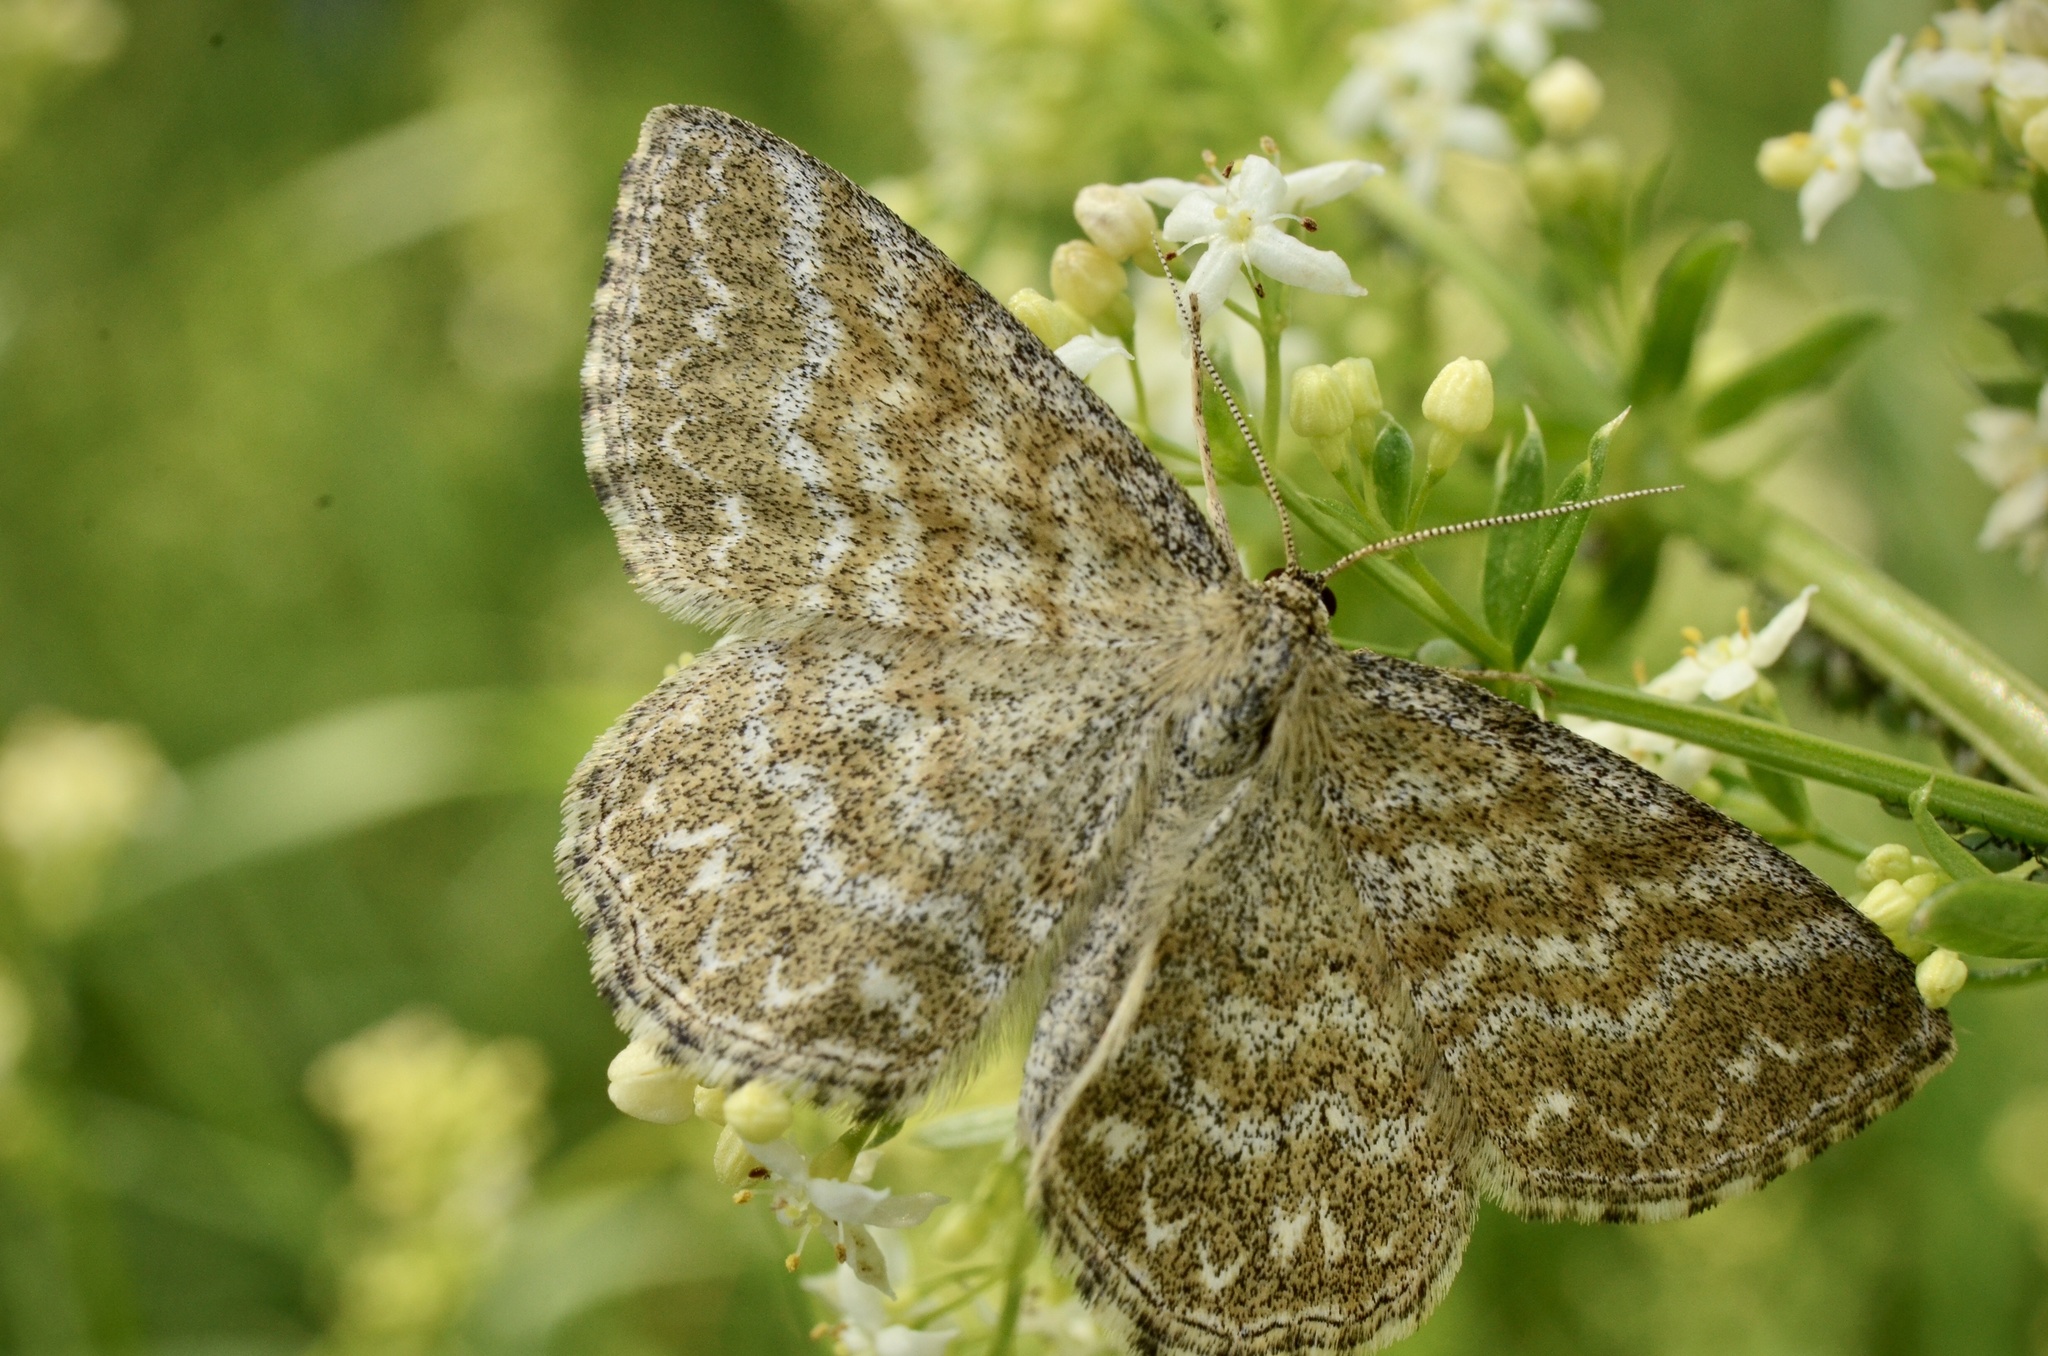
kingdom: Animalia
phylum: Arthropoda
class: Insecta
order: Lepidoptera
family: Geometridae
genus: Scopula
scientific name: Scopula immorata
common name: Lewes wave
